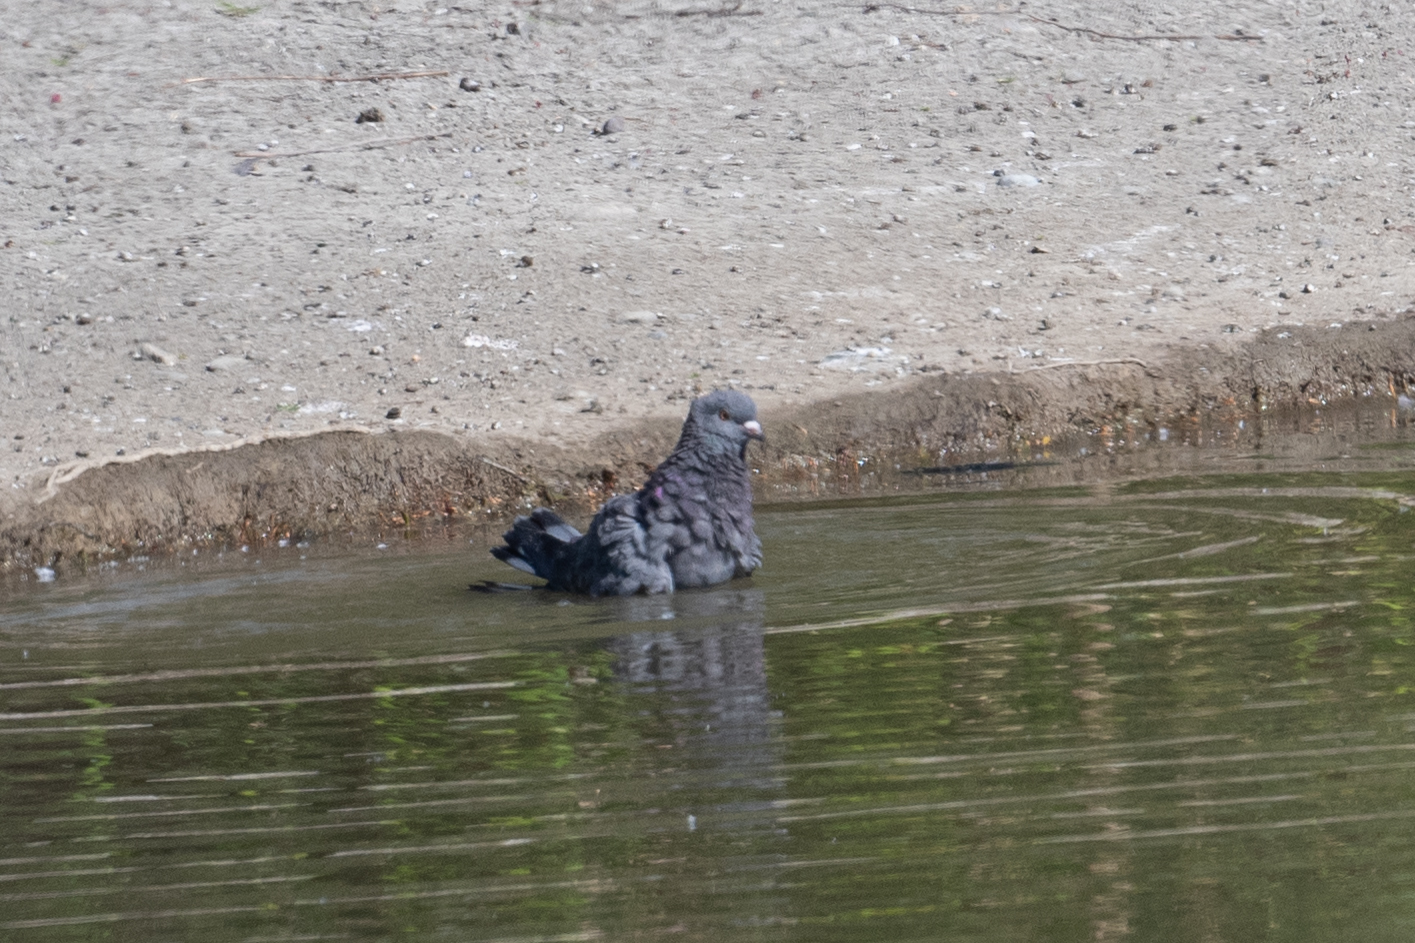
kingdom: Animalia
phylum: Chordata
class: Aves
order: Columbiformes
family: Columbidae
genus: Columba
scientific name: Columba livia
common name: Rock pigeon
